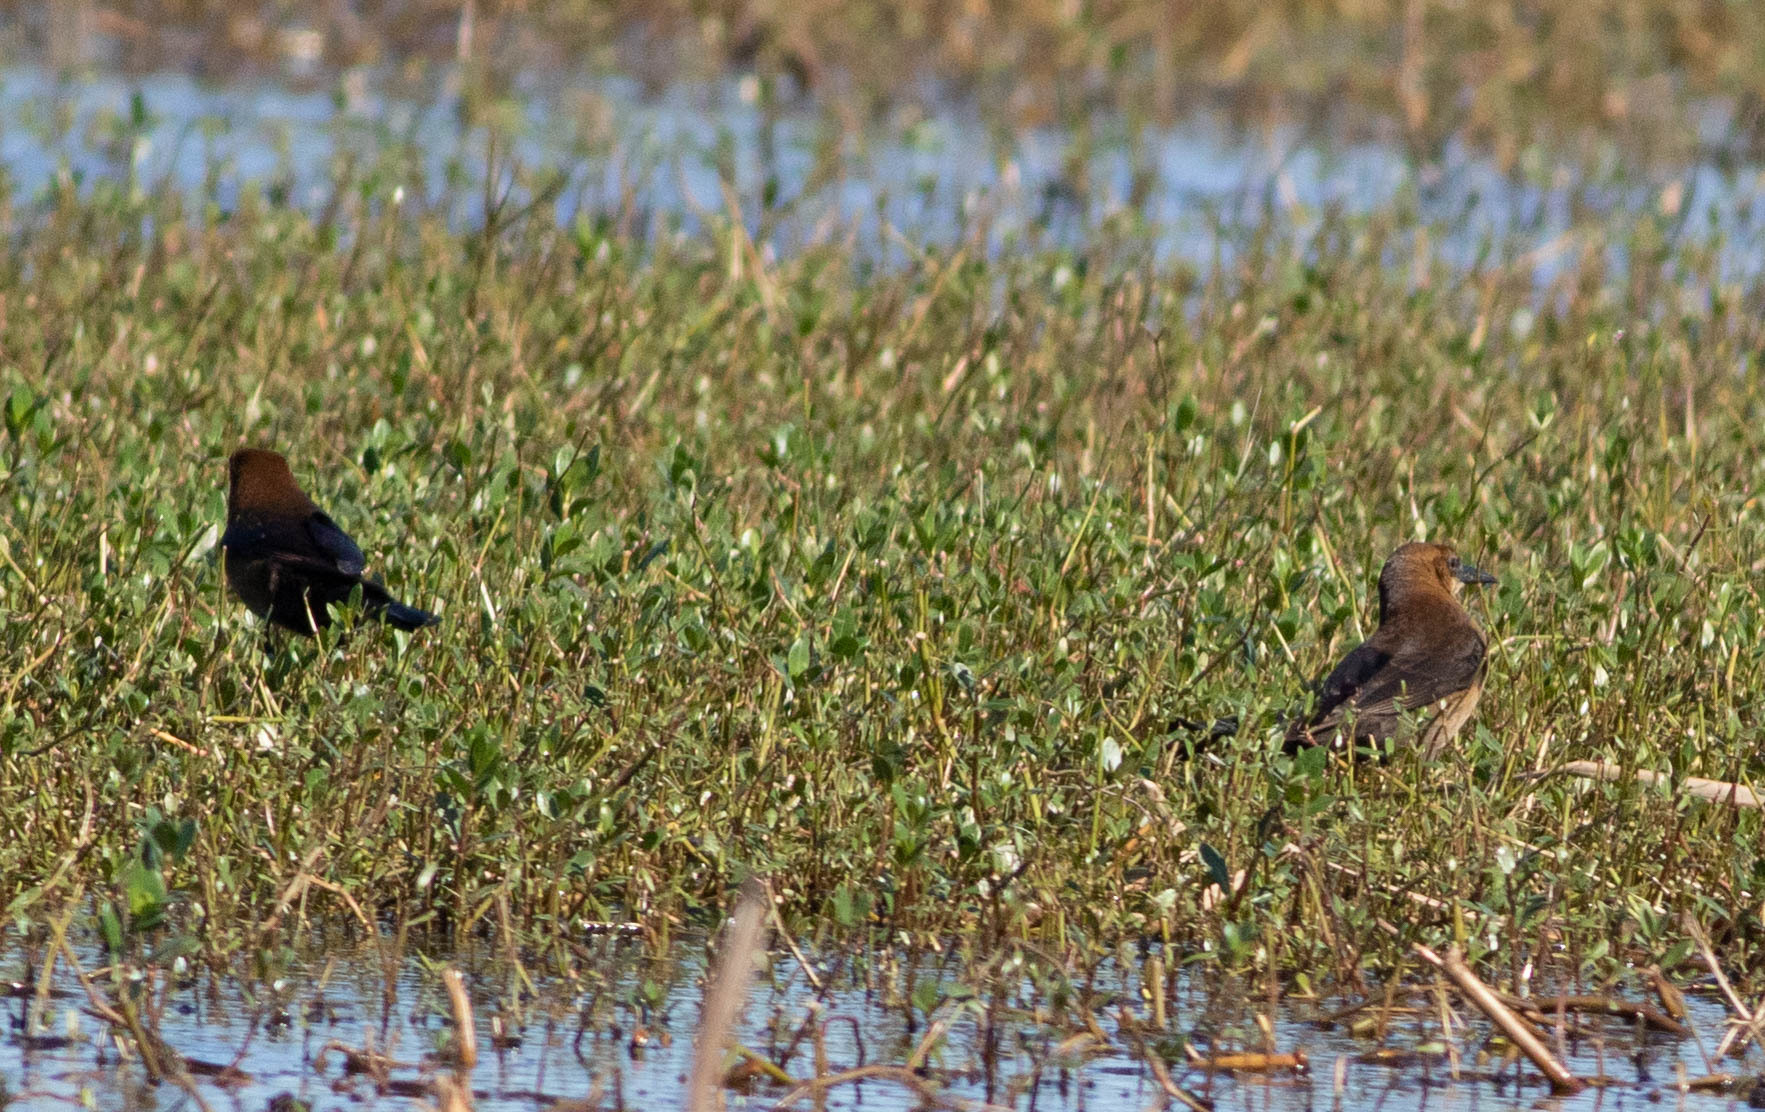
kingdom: Animalia
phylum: Chordata
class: Aves
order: Passeriformes
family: Icteridae
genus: Quiscalus
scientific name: Quiscalus major
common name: Boat-tailed grackle
